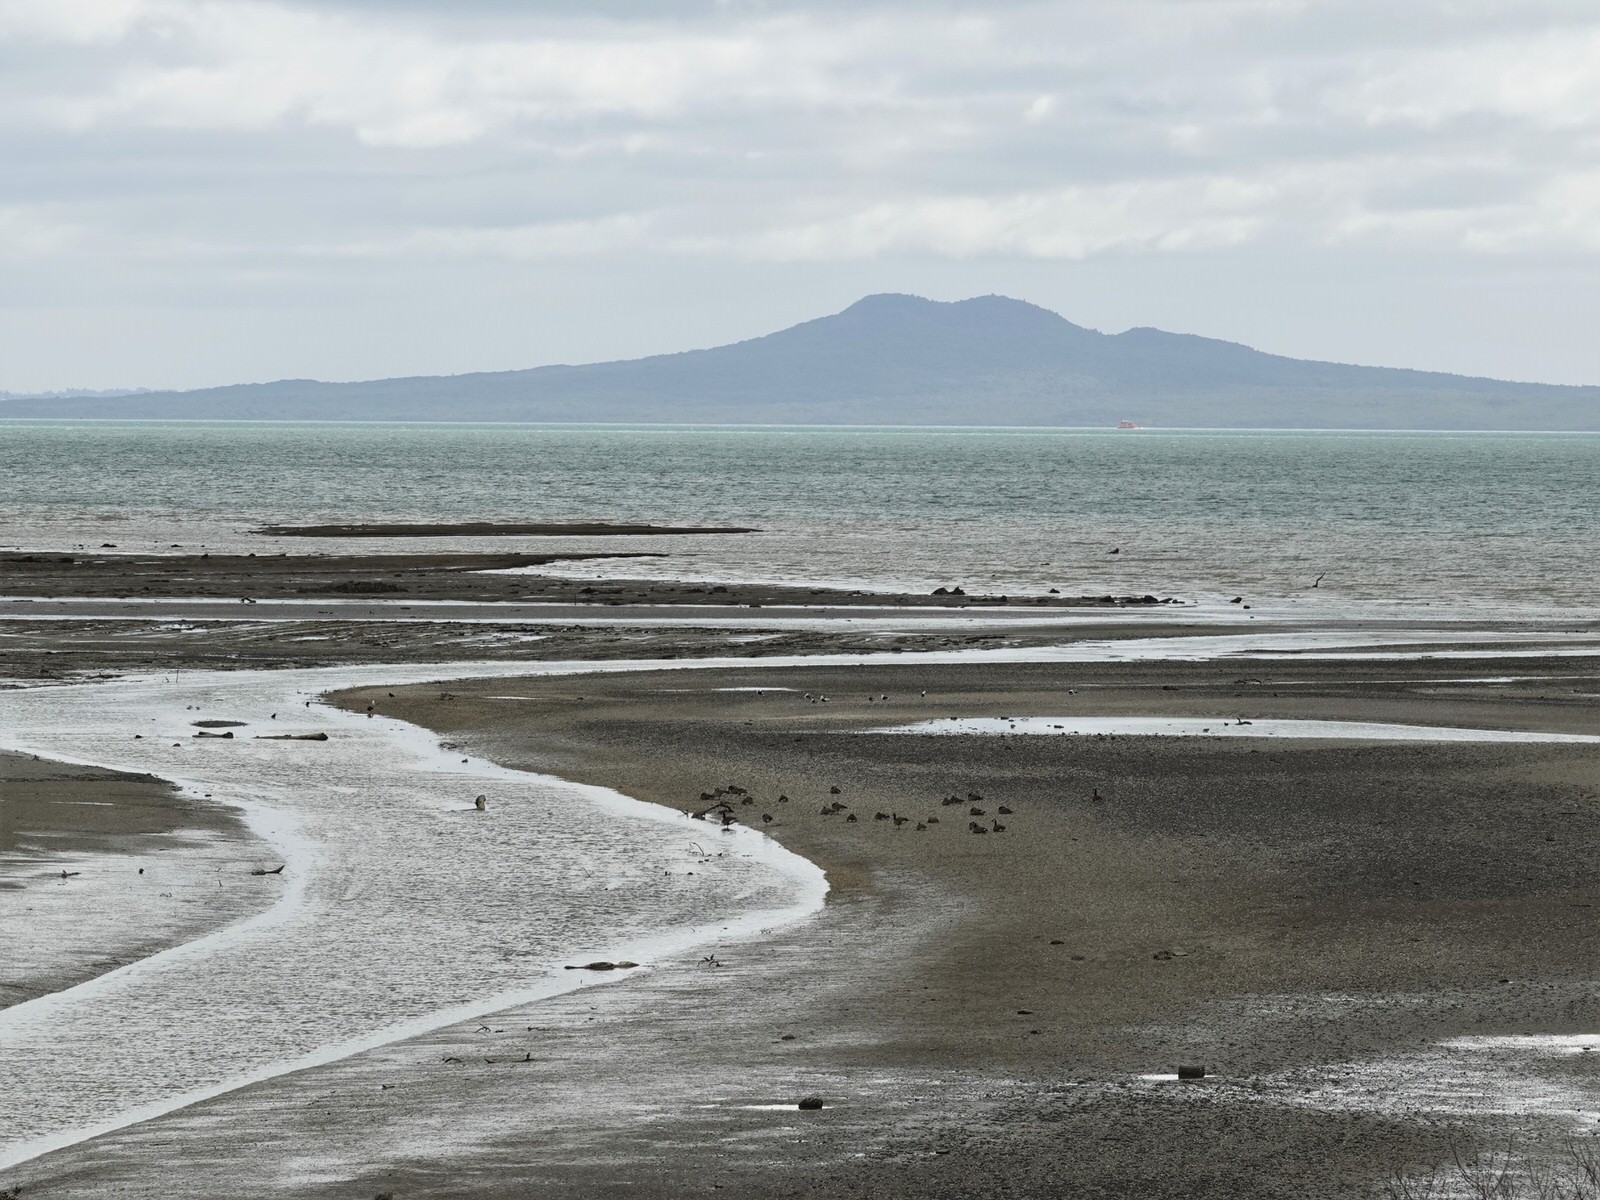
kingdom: Animalia
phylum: Chordata
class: Aves
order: Anseriformes
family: Anatidae
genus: Branta
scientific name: Branta canadensis
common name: Canada goose
